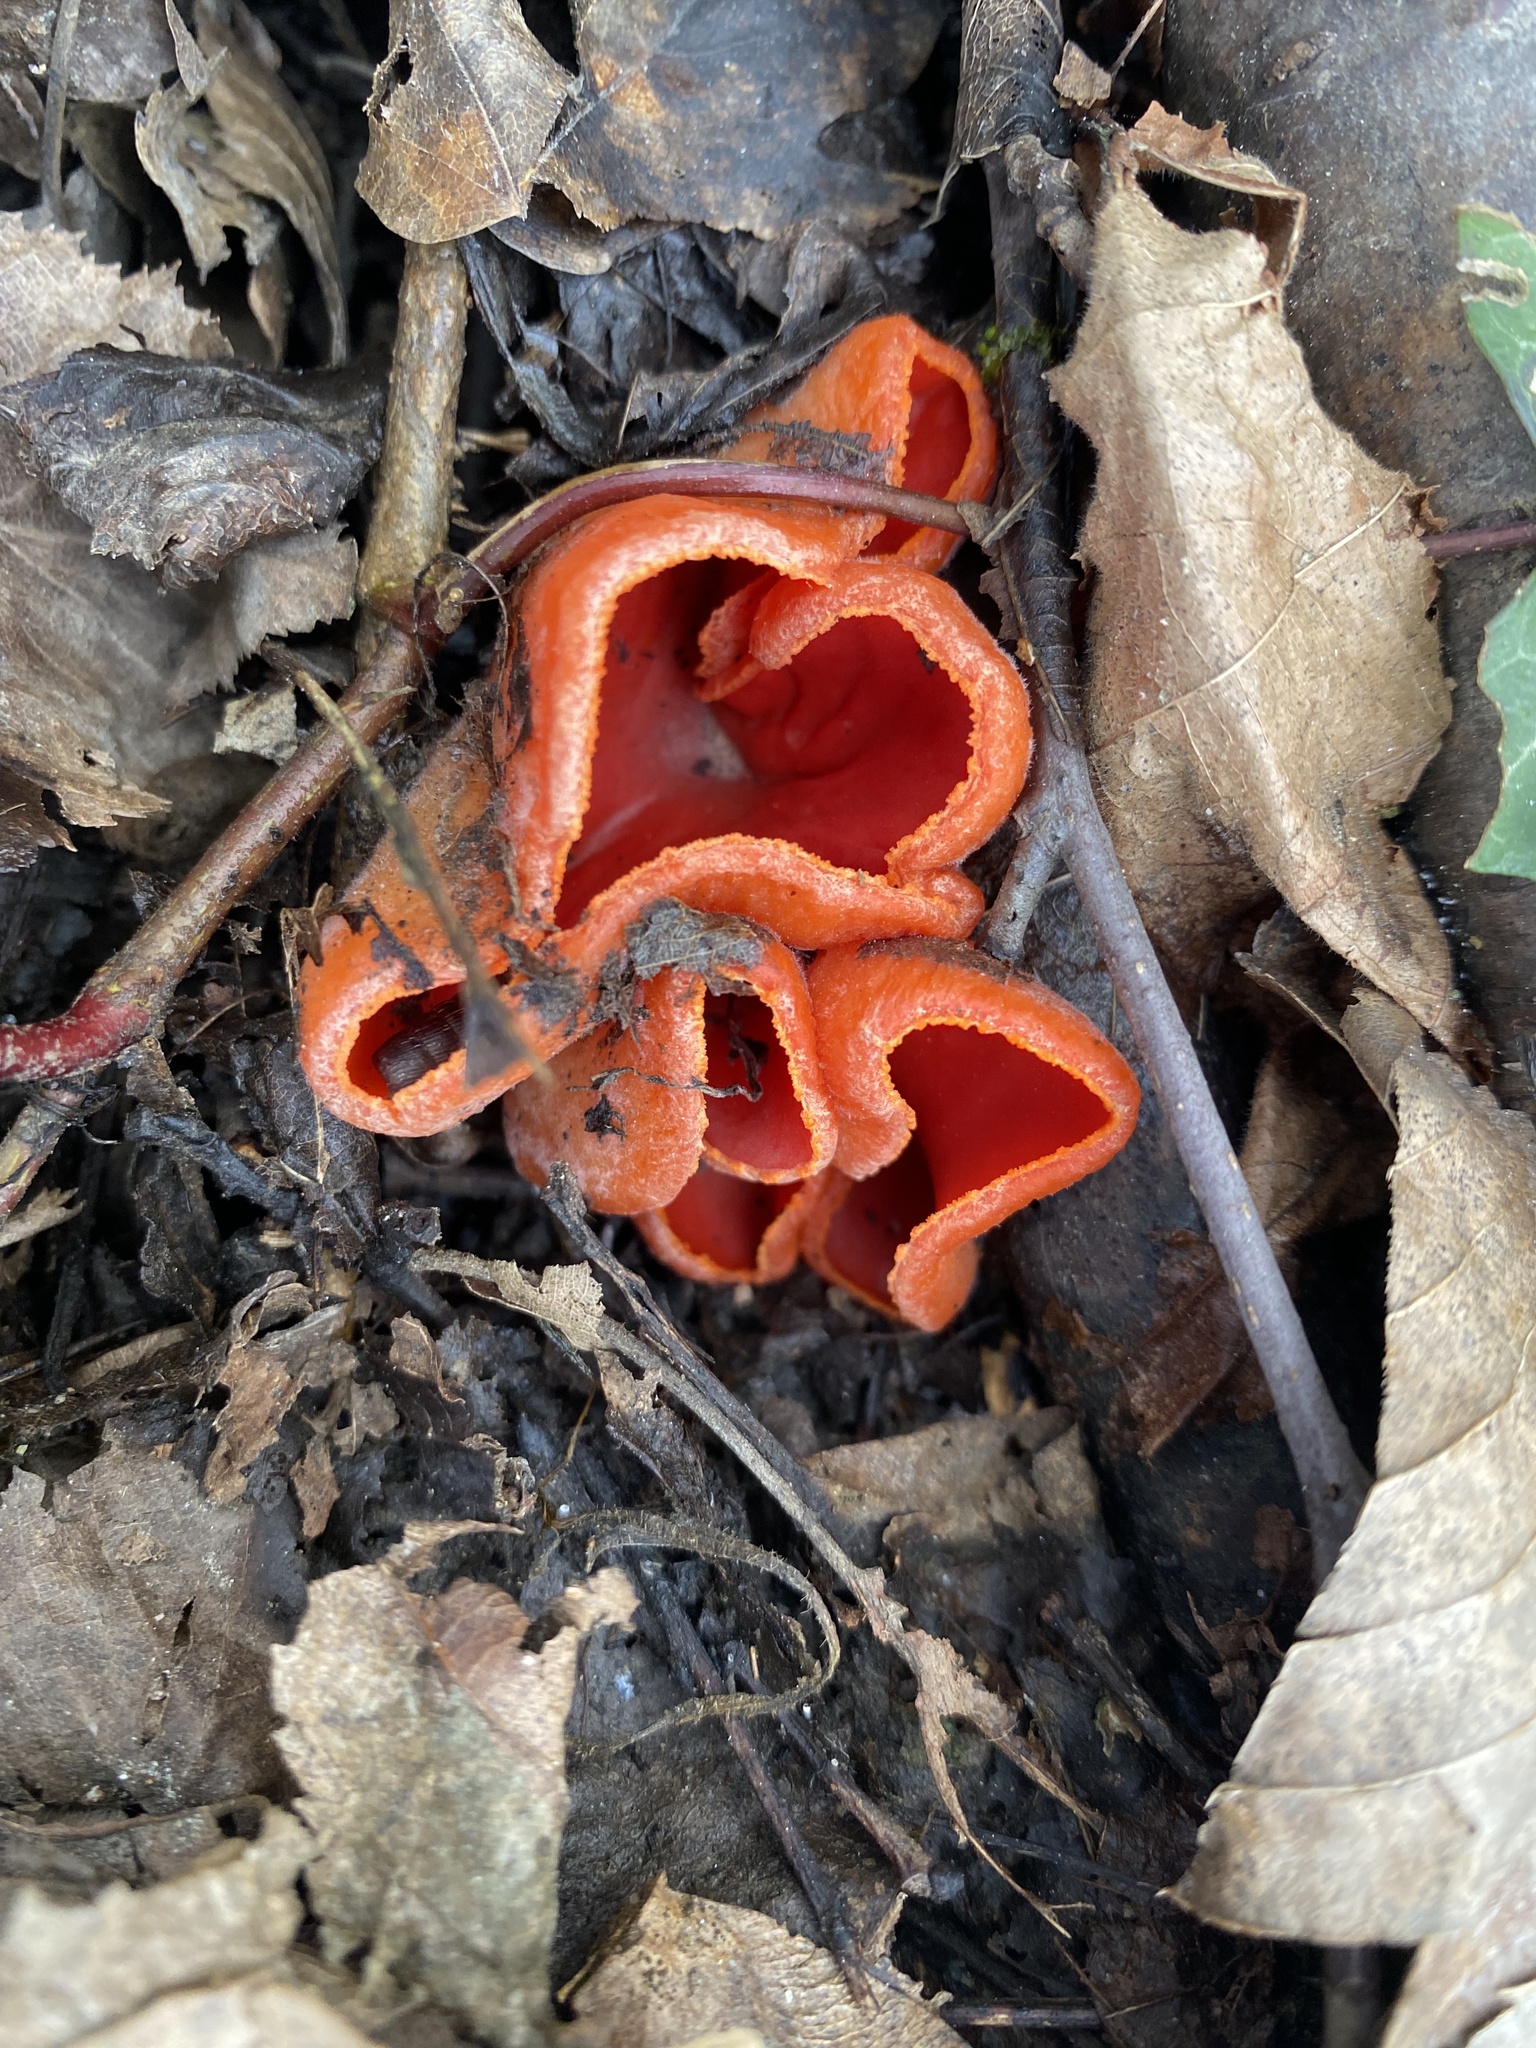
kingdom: Fungi
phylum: Ascomycota
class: Pezizomycetes
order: Pezizales
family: Sarcoscyphaceae
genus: Sarcoscypha
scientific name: Sarcoscypha
